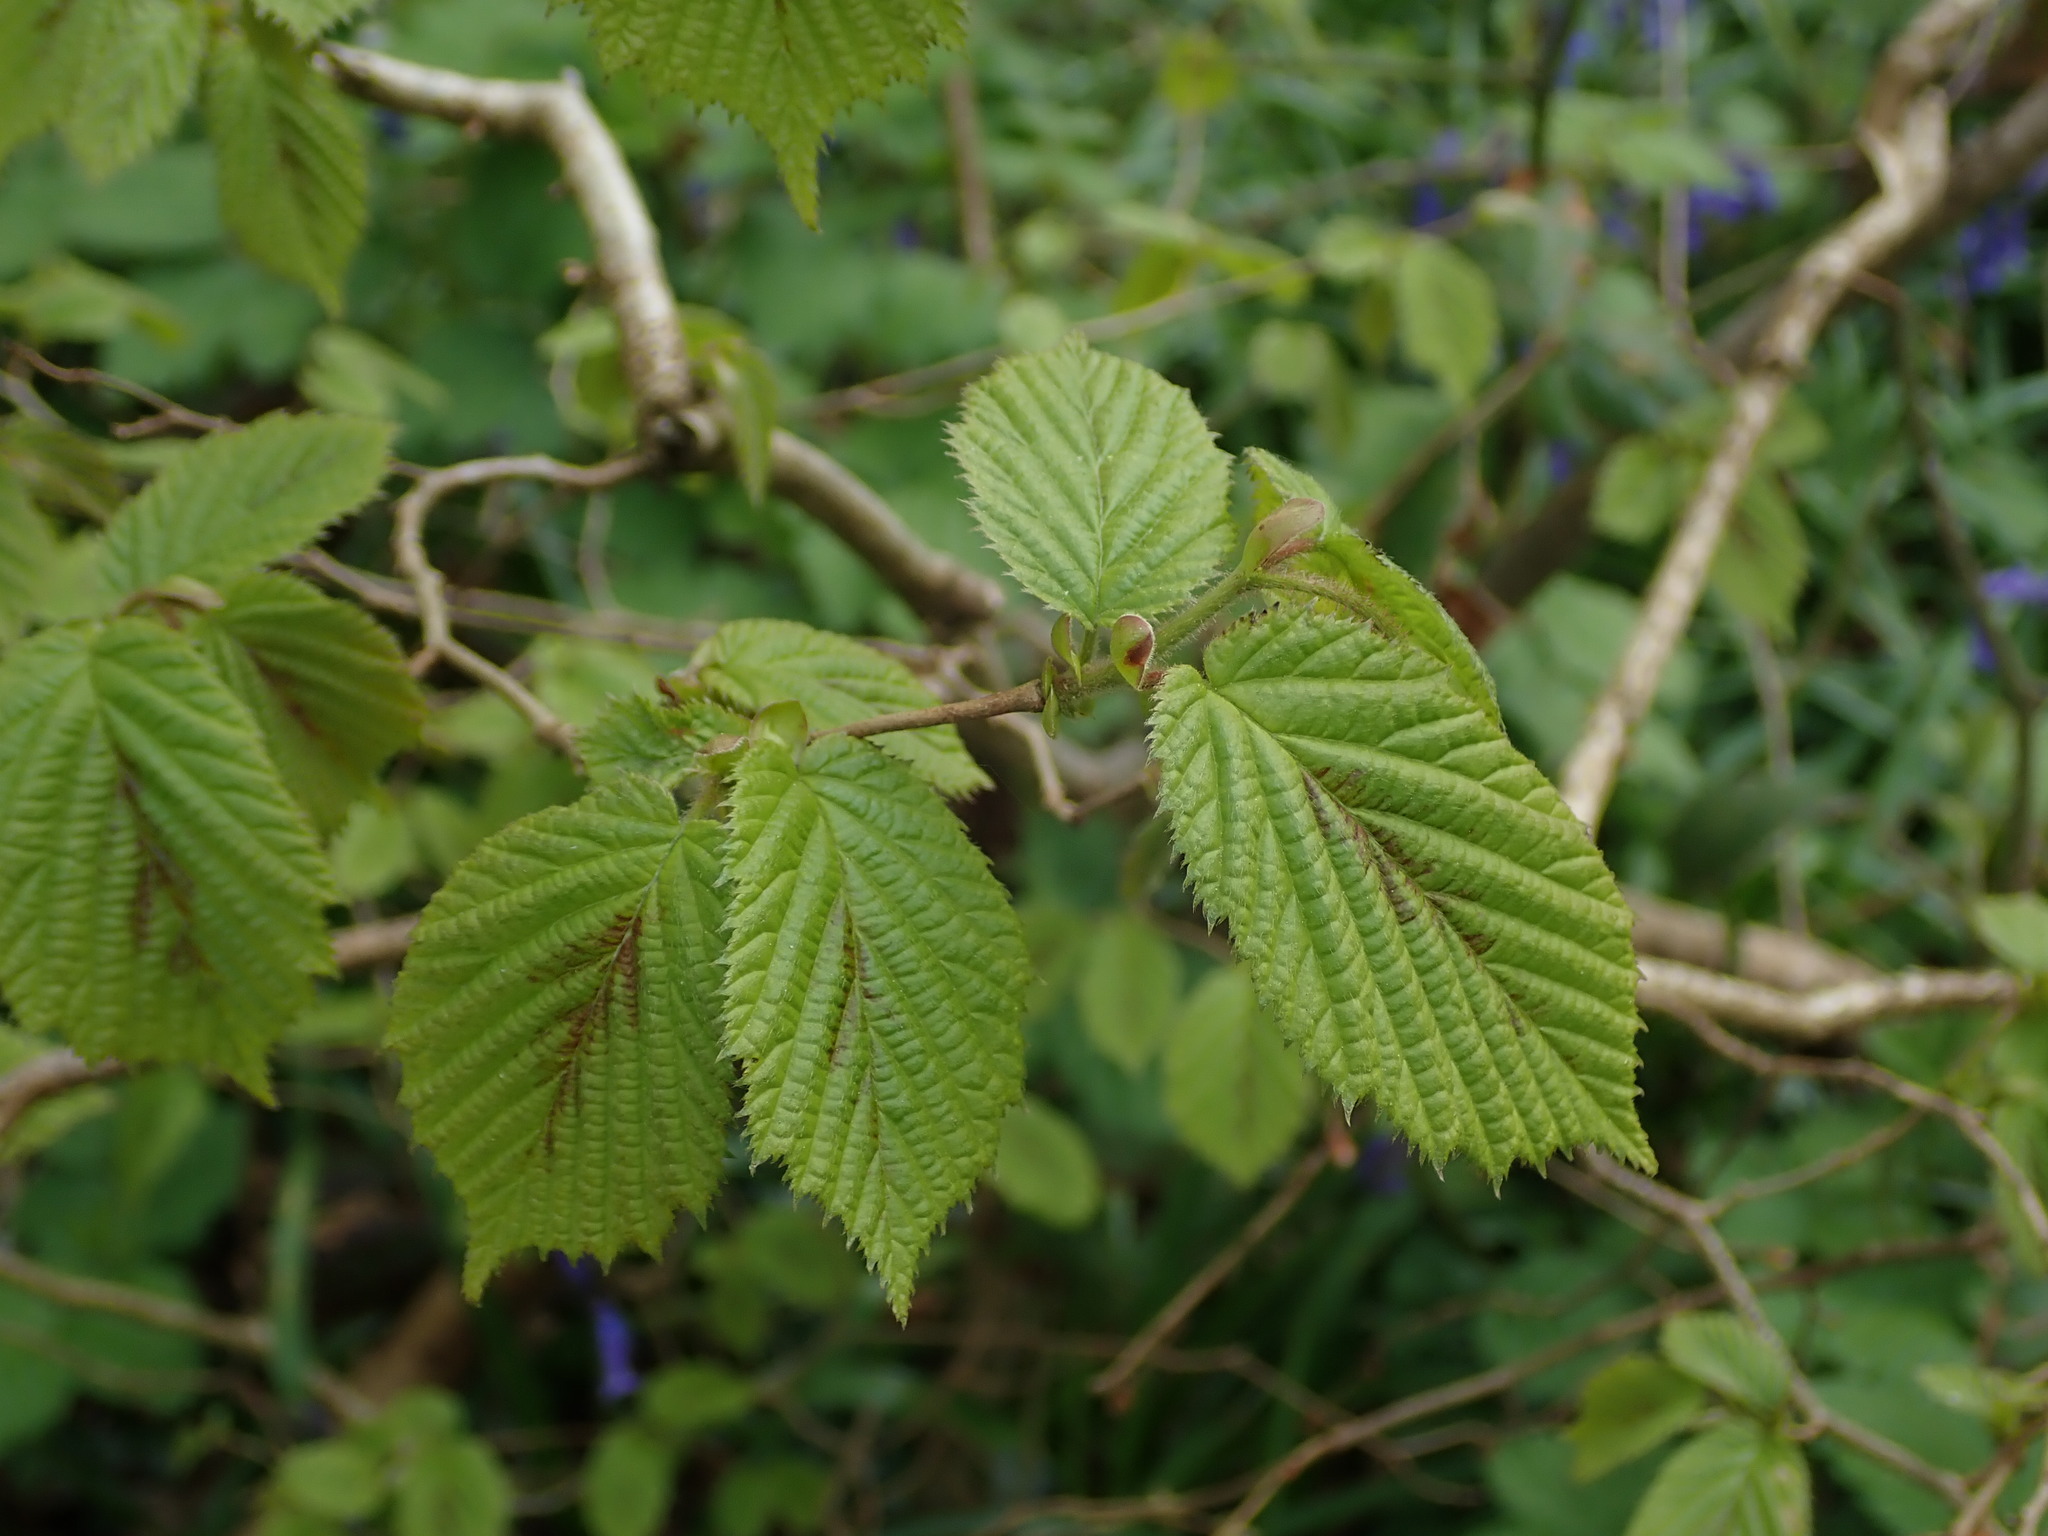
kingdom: Plantae
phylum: Tracheophyta
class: Magnoliopsida
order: Fagales
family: Betulaceae
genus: Corylus
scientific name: Corylus avellana
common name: European hazel
